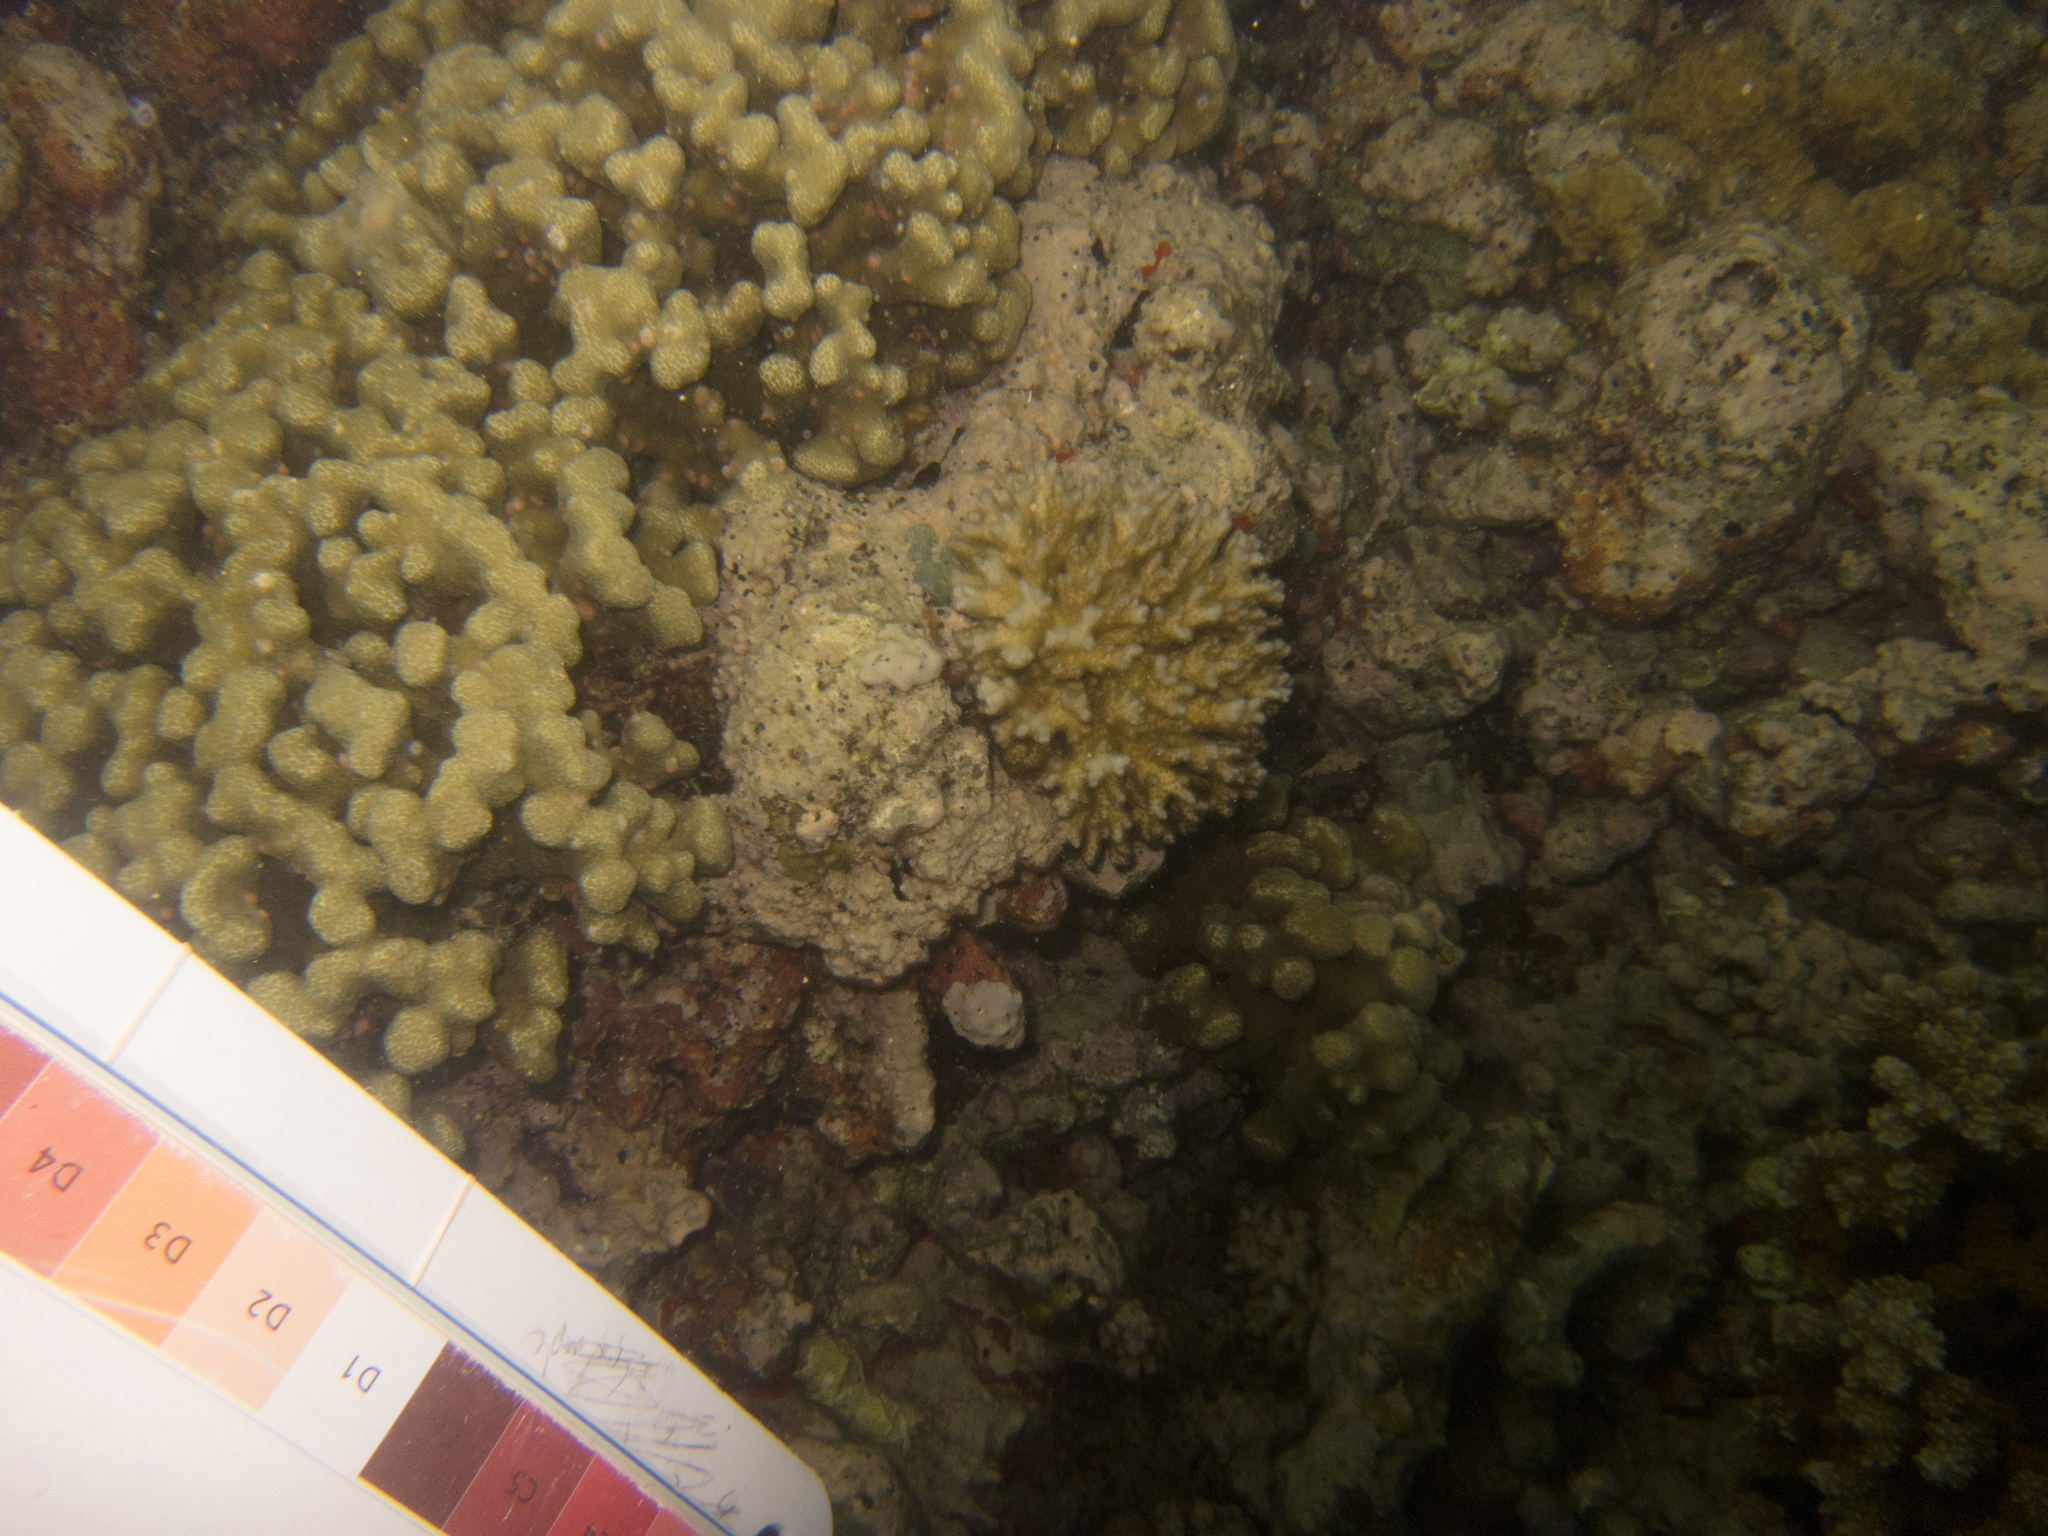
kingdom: Animalia
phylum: Cnidaria
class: Anthozoa
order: Scleractinia
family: Pocilloporidae
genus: Pocillopora
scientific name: Pocillopora damicornis
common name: Cauliflower coral
